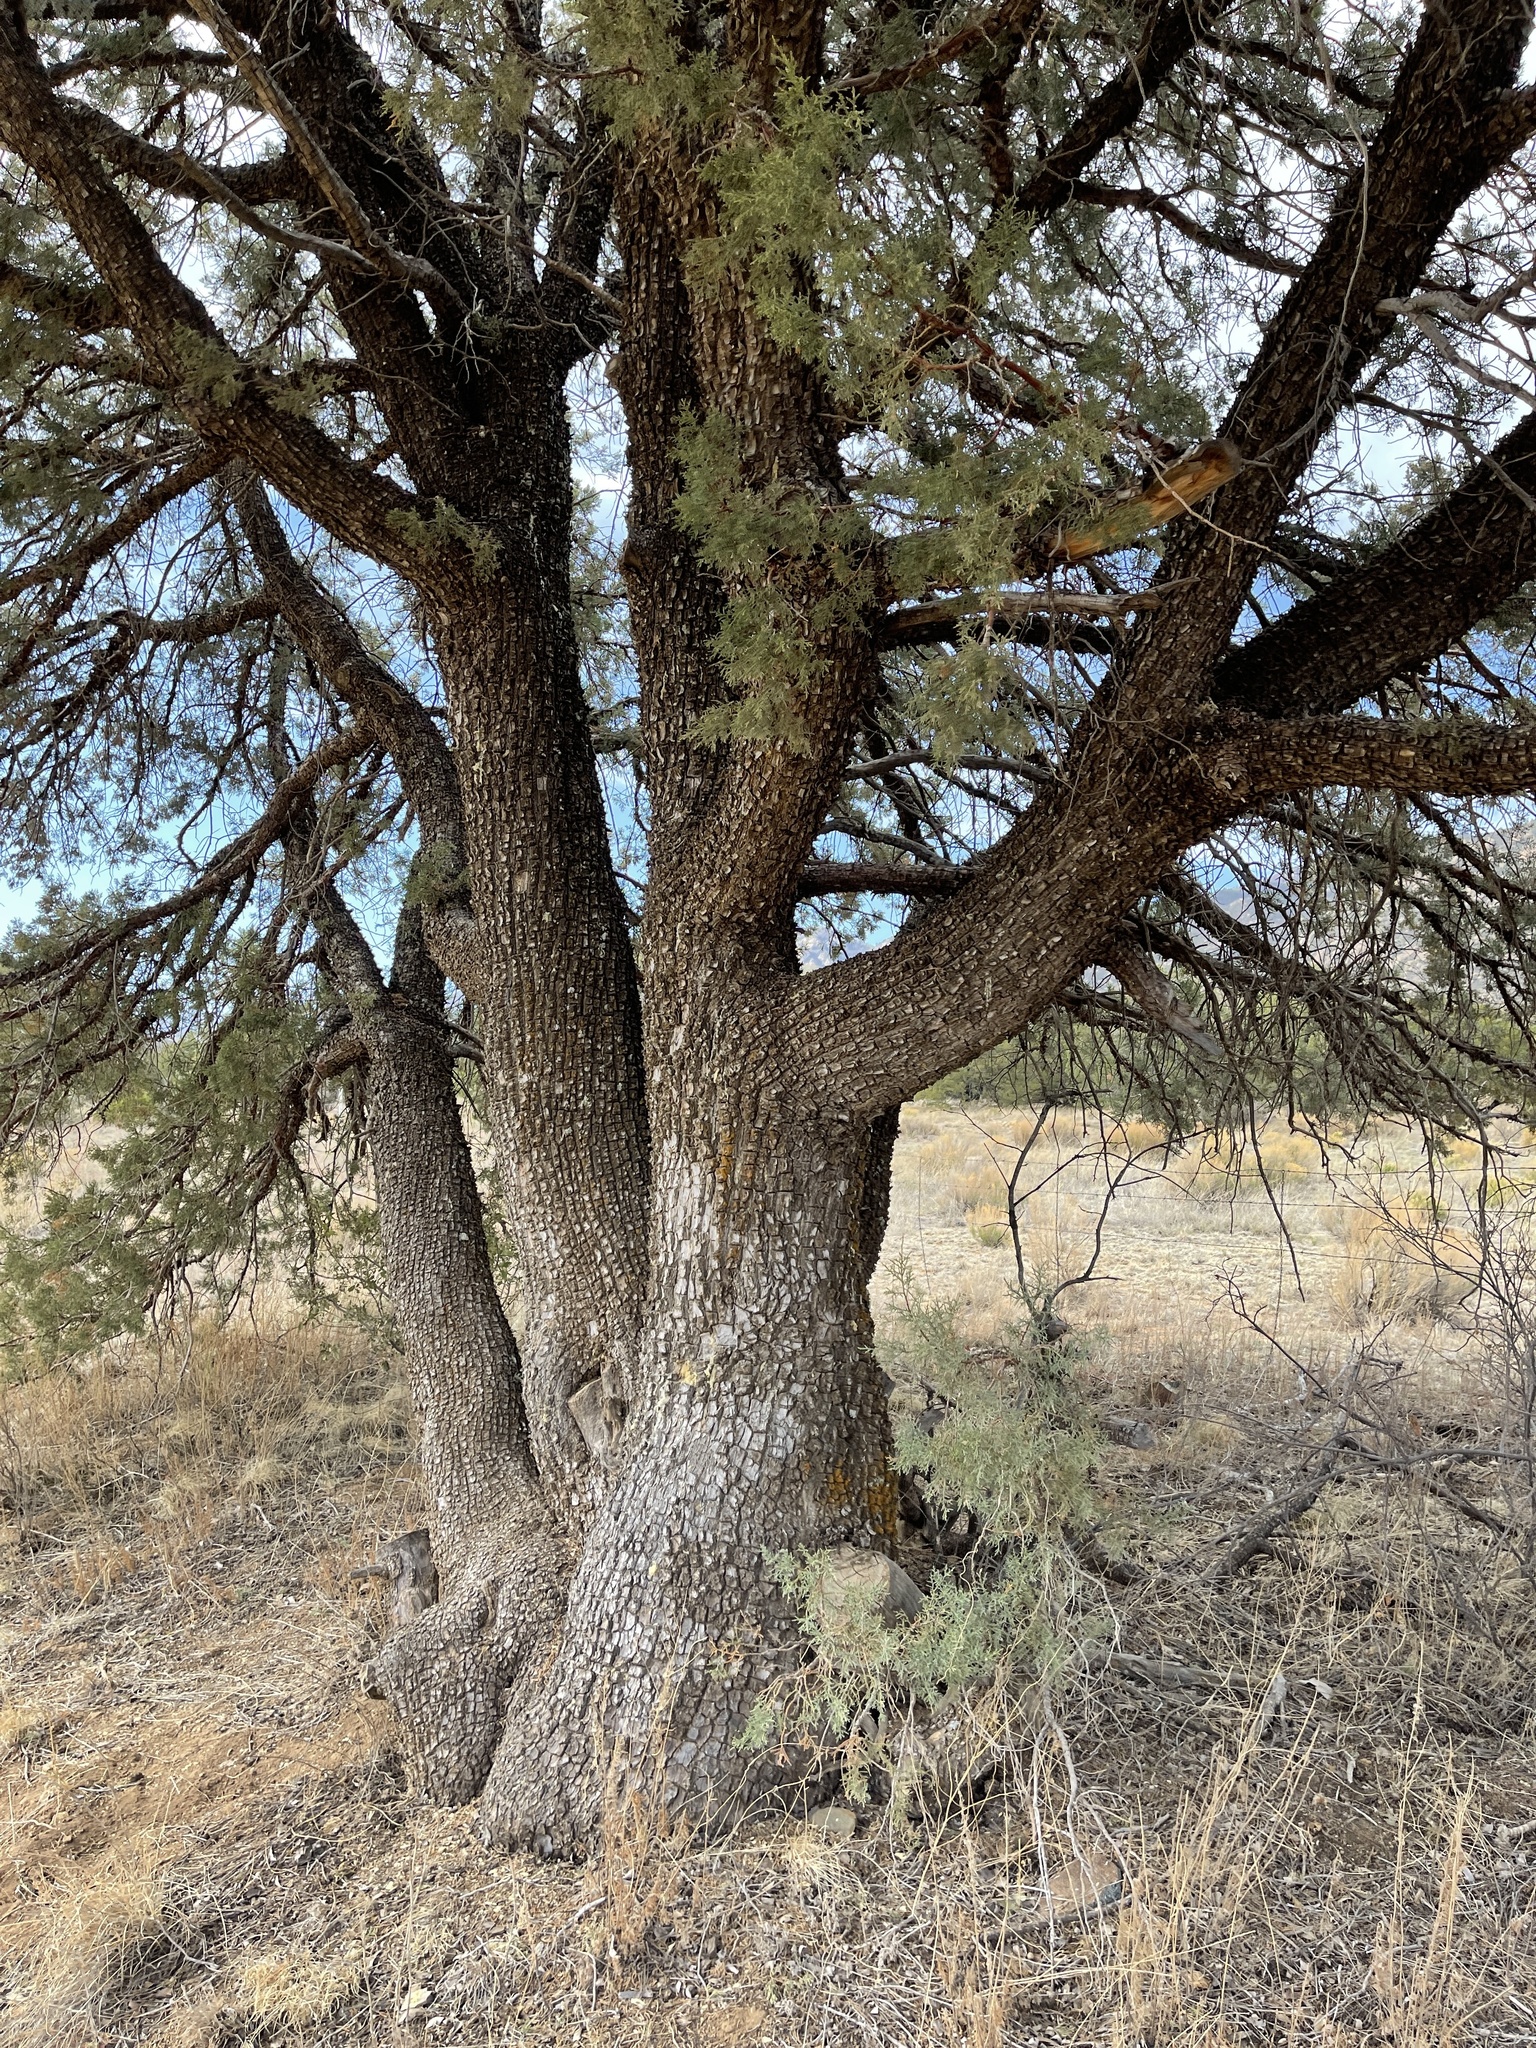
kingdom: Plantae
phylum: Tracheophyta
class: Pinopsida
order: Pinales
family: Cupressaceae
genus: Juniperus
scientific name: Juniperus deppeana
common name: Alligator juniper
